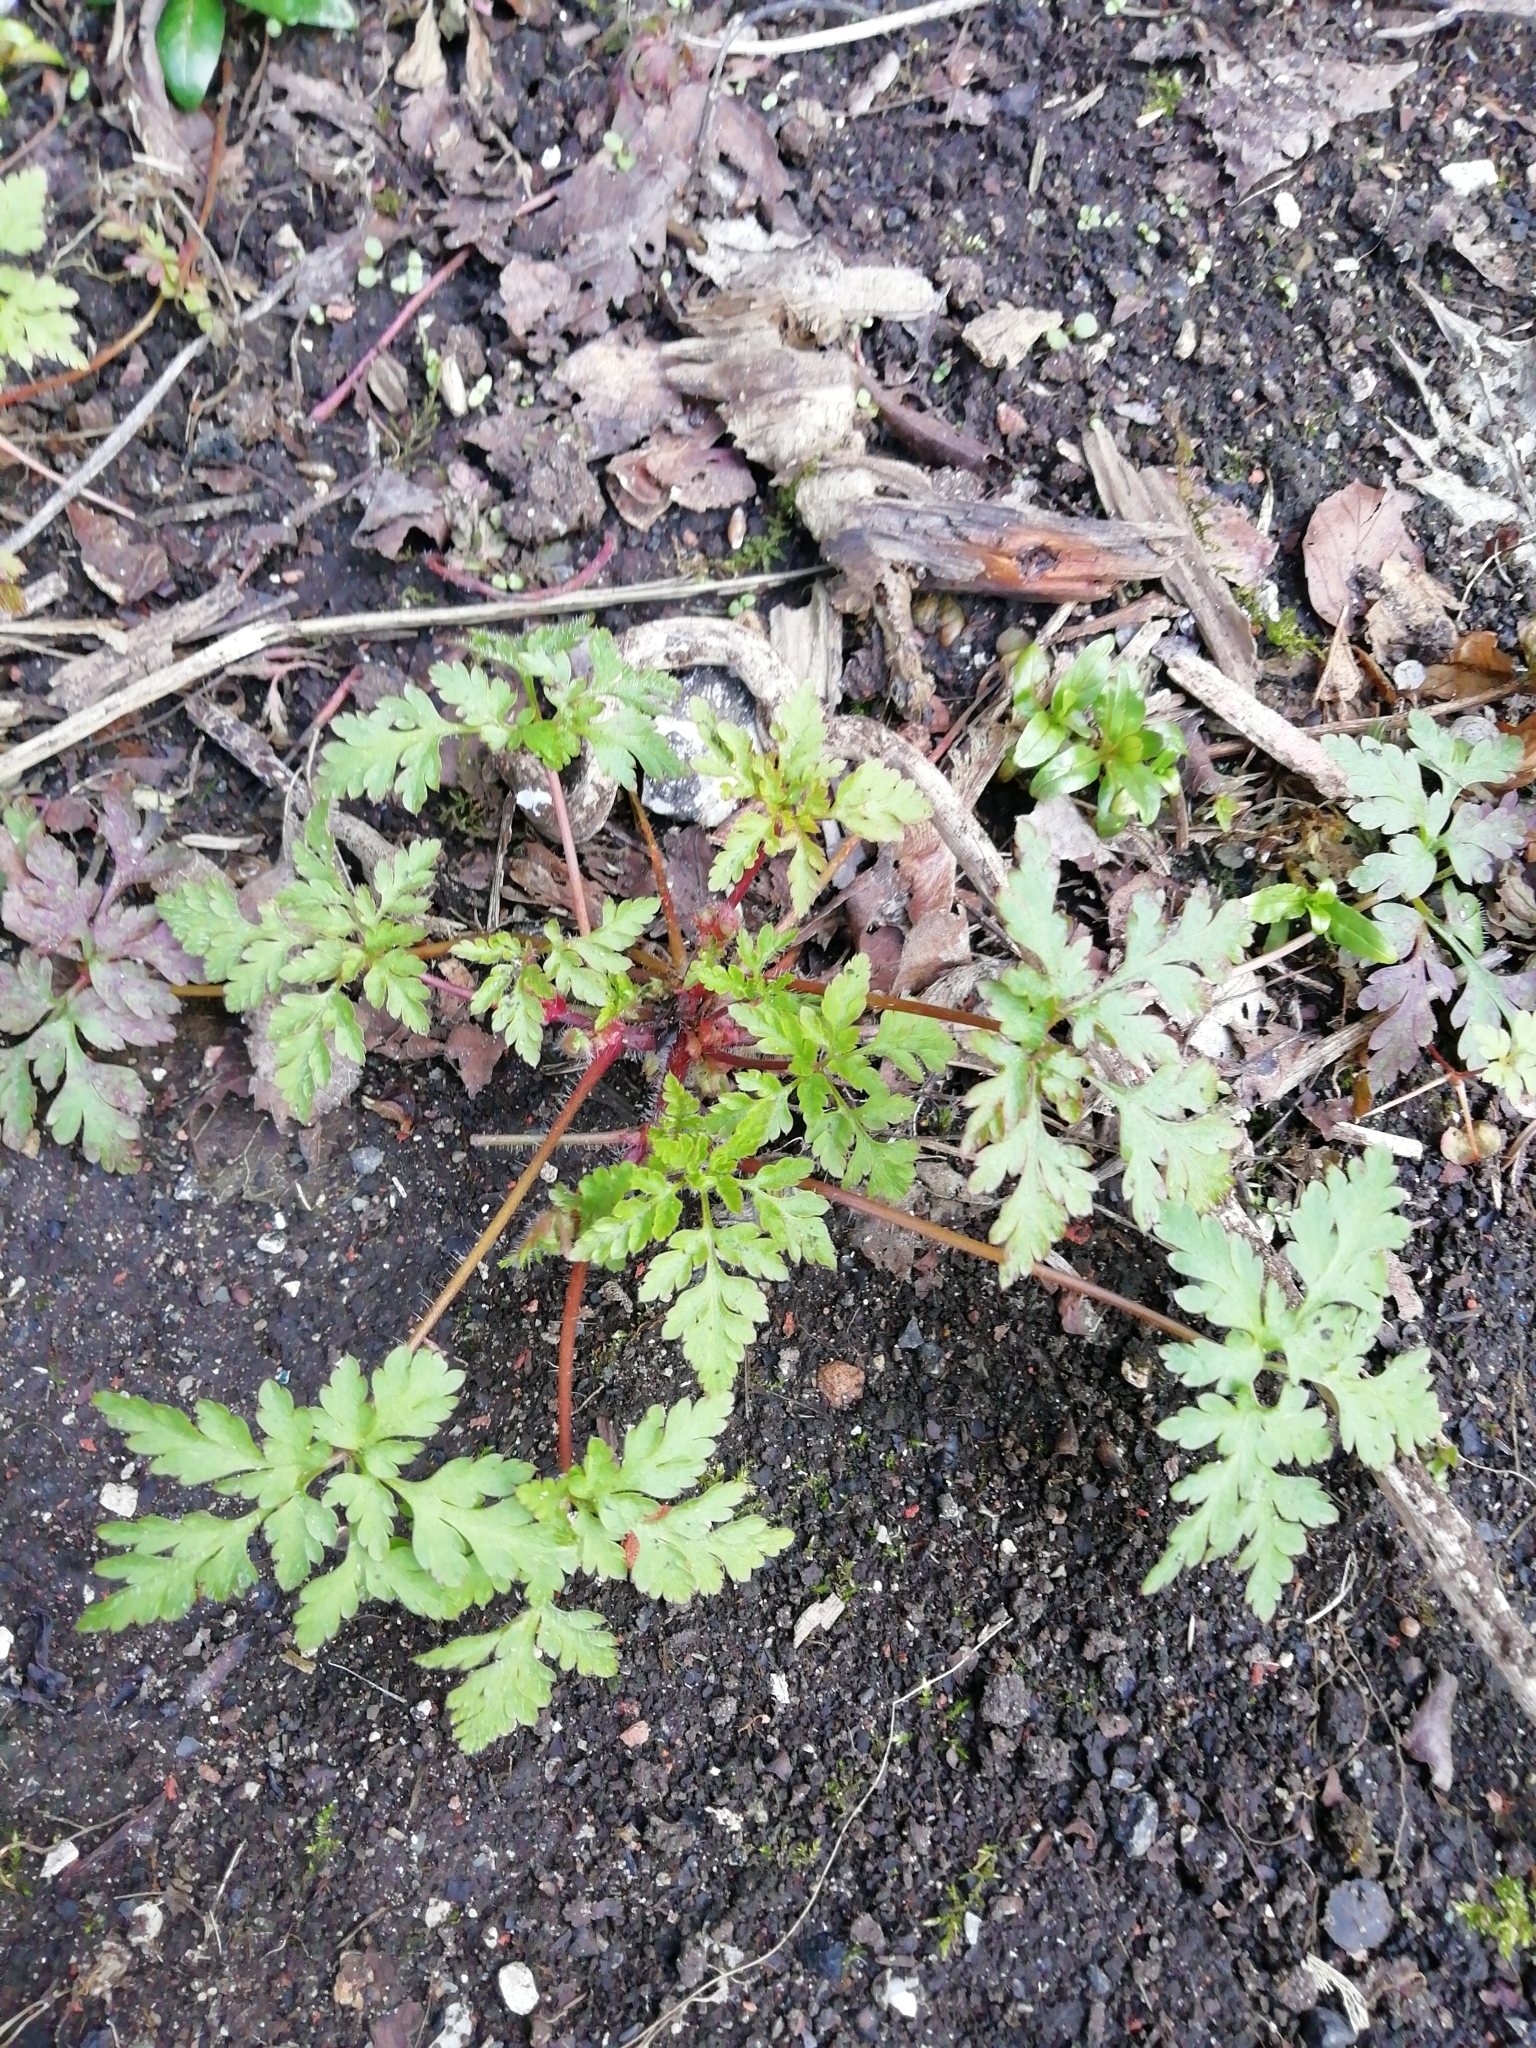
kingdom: Plantae
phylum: Tracheophyta
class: Magnoliopsida
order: Geraniales
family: Geraniaceae
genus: Geranium
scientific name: Geranium robertianum
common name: Herb-robert
